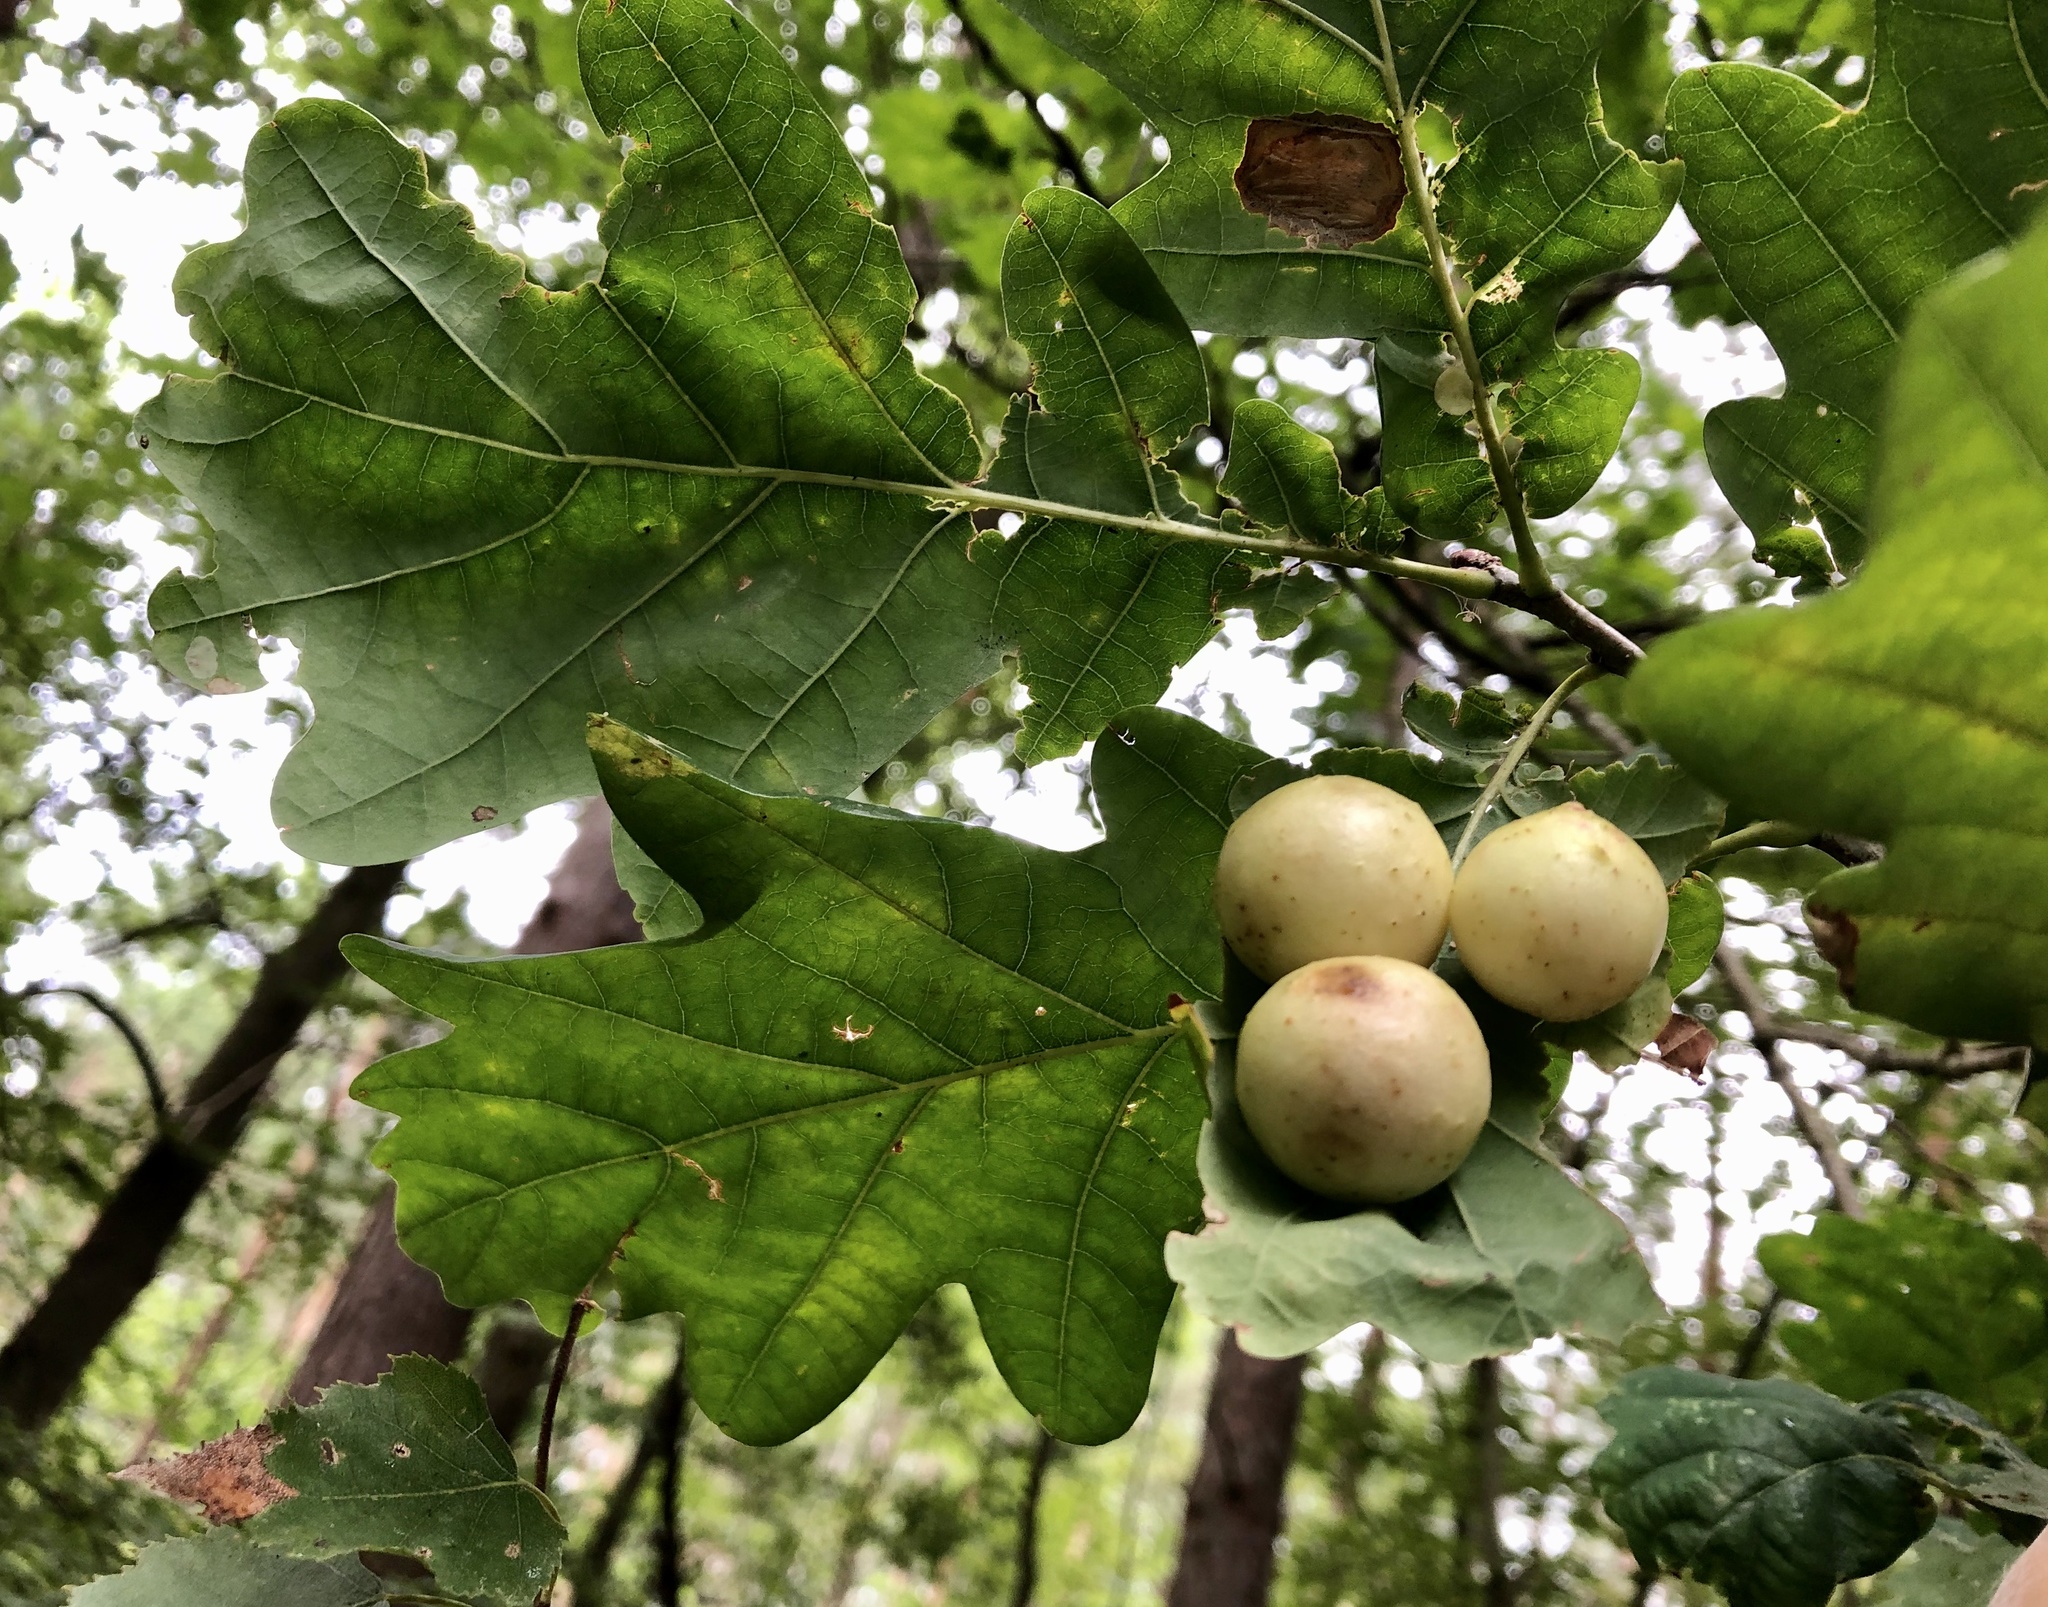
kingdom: Animalia
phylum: Arthropoda
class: Insecta
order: Hymenoptera
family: Cynipidae
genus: Cynips
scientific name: Cynips quercusfolii
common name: Cherry gall
